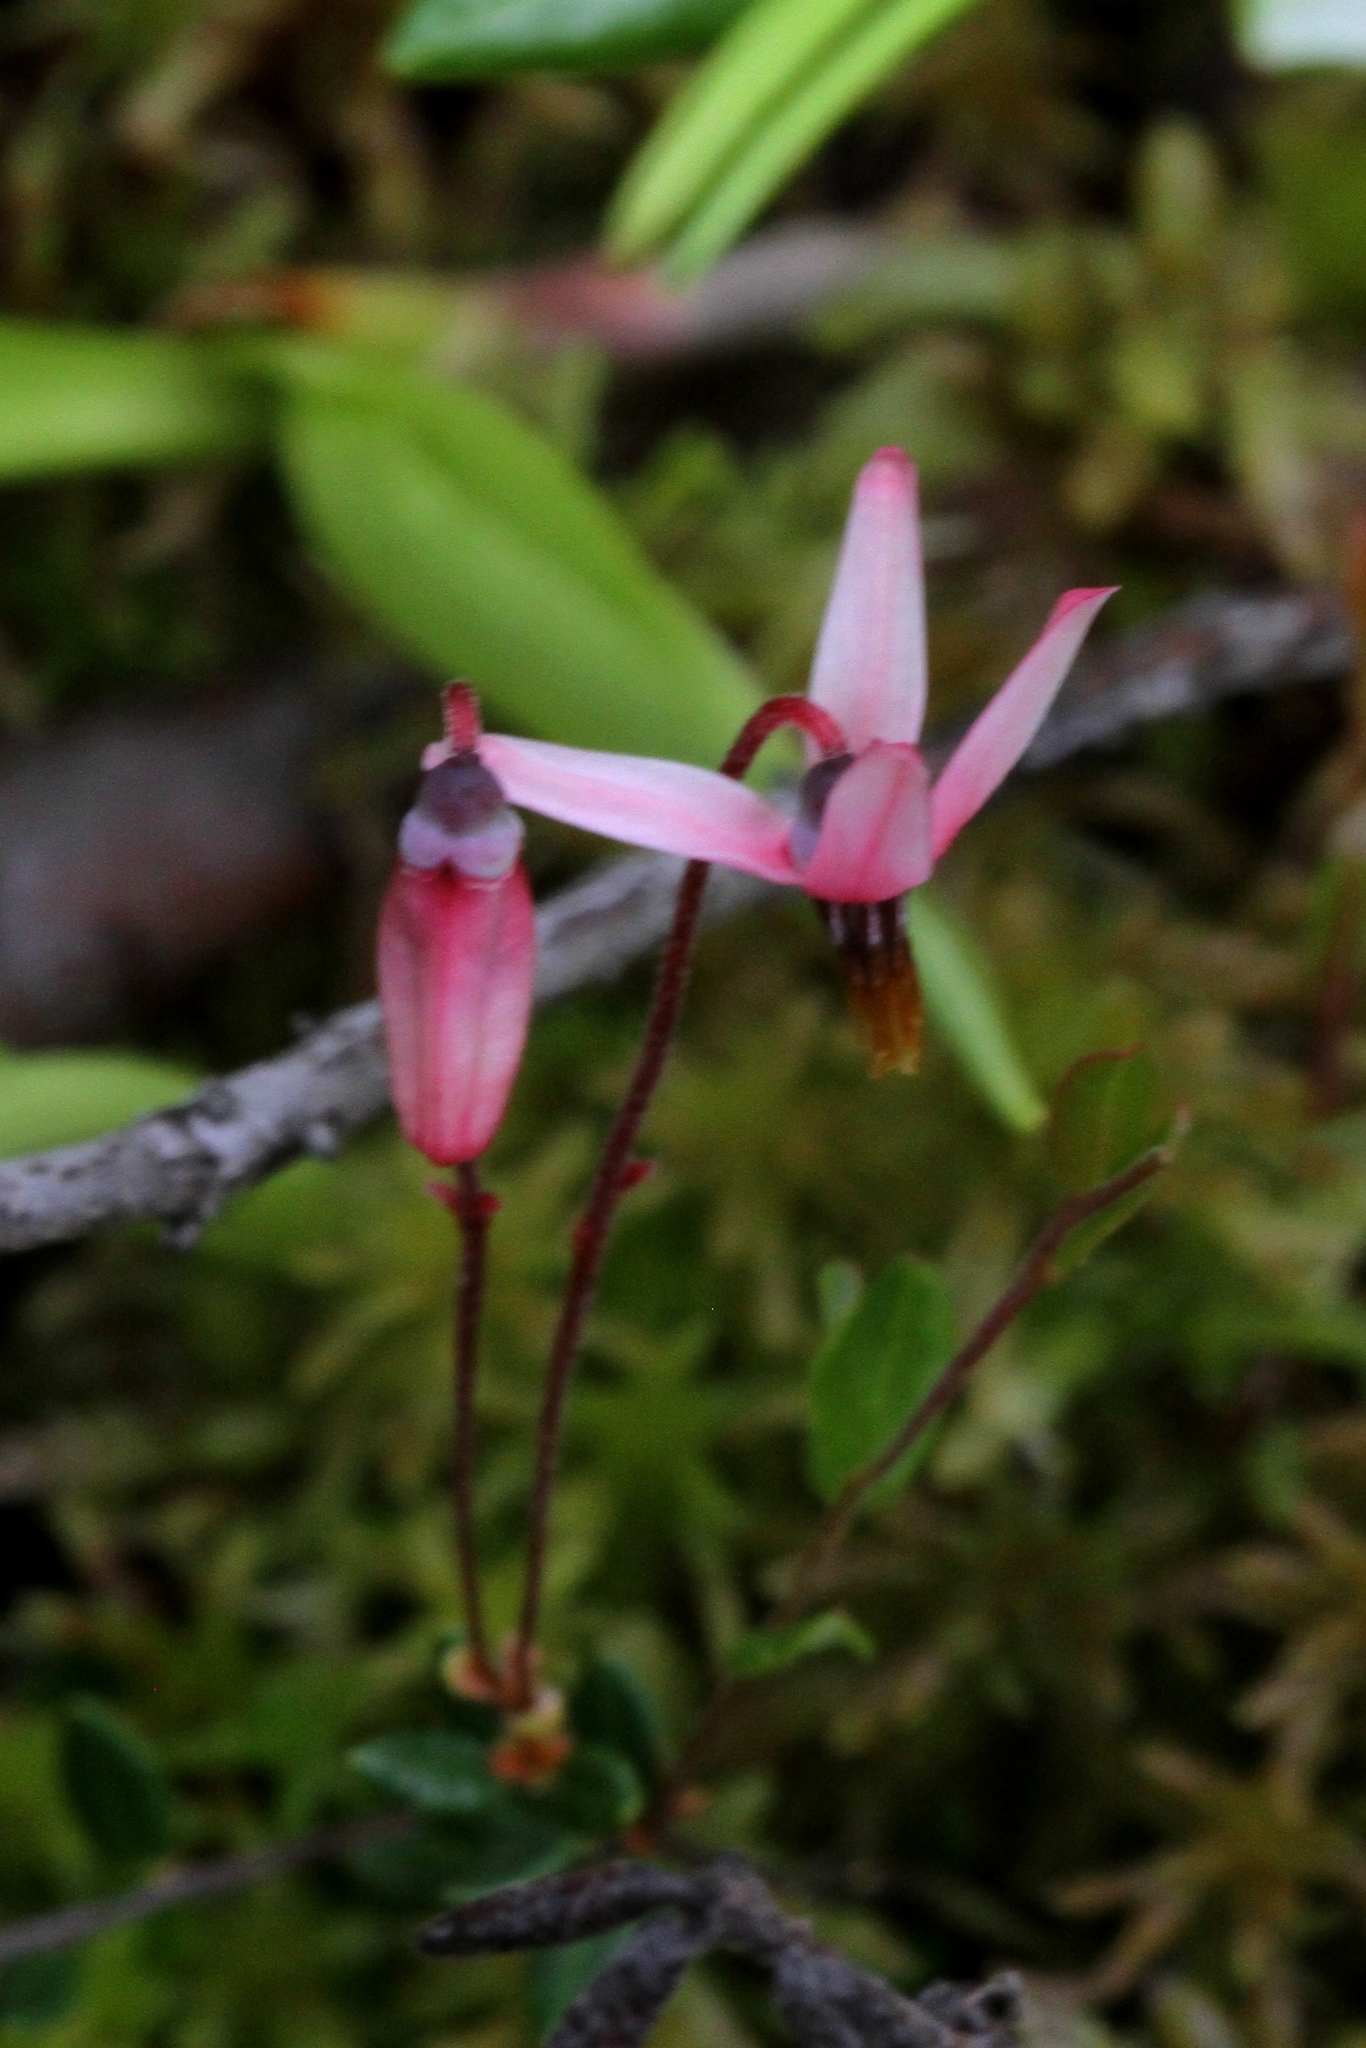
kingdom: Plantae
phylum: Tracheophyta
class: Magnoliopsida
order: Ericales
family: Ericaceae
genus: Vaccinium
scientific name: Vaccinium oxycoccos
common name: Cranberry
